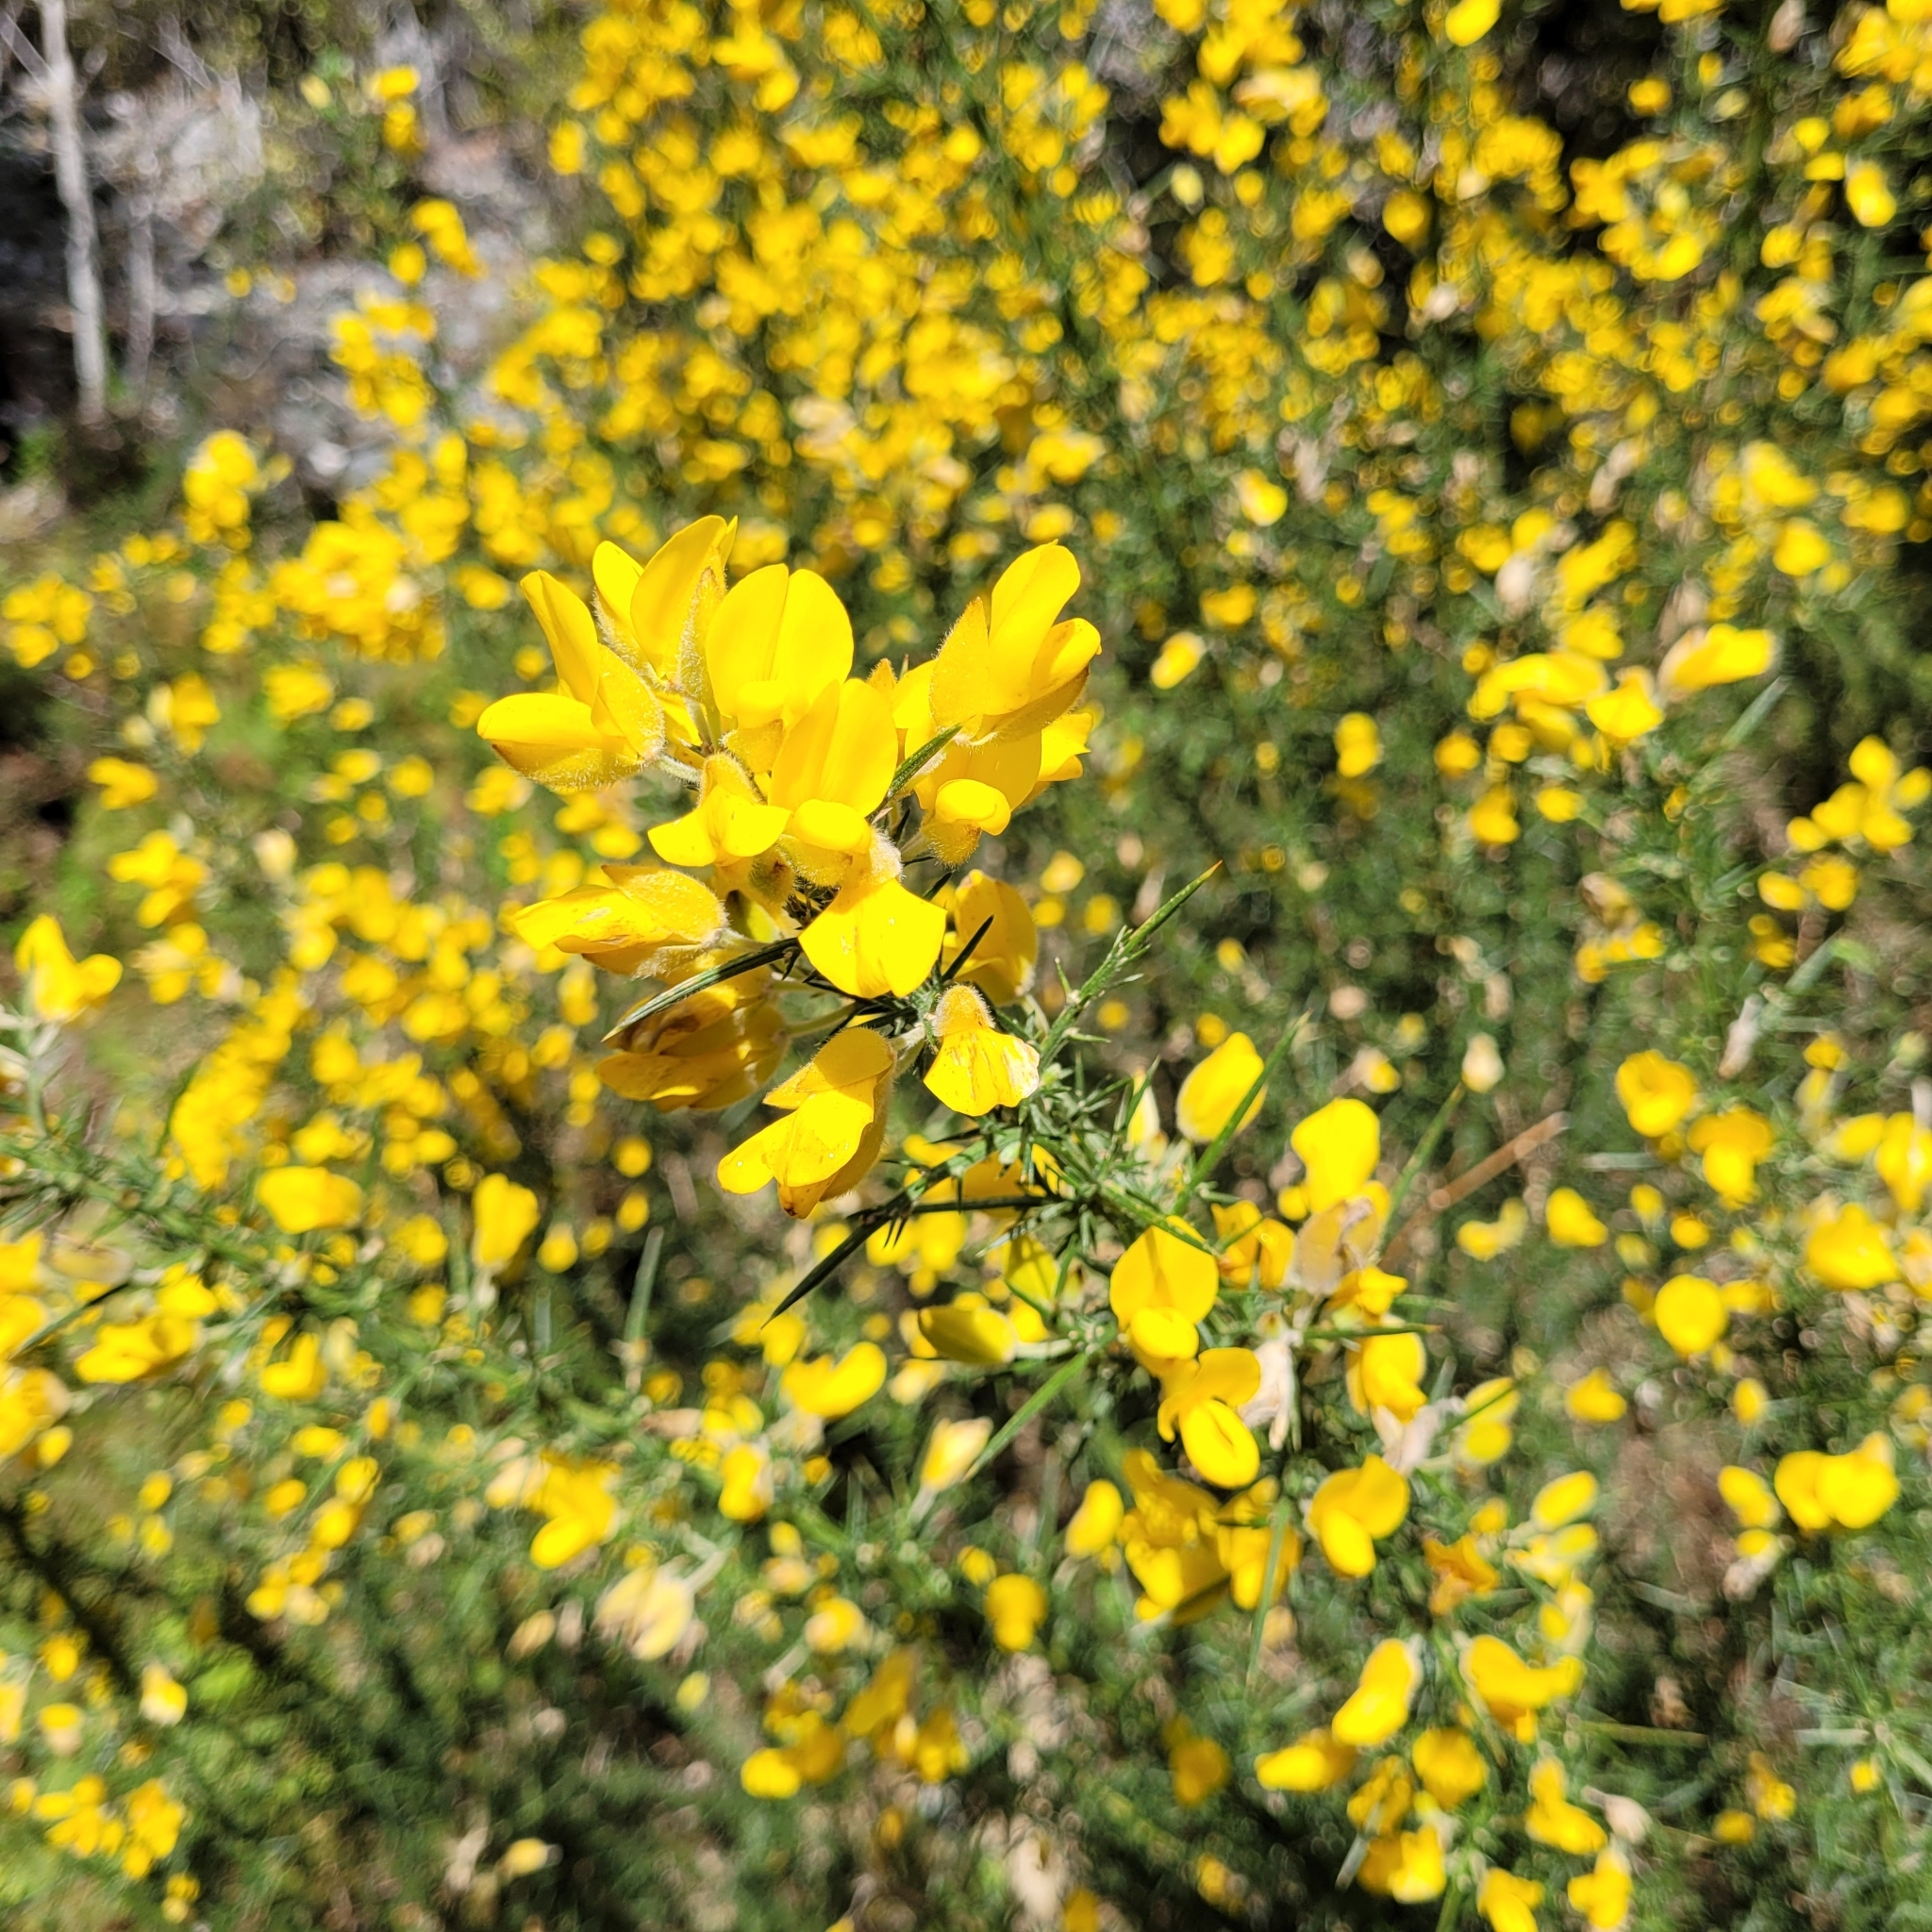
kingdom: Plantae
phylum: Tracheophyta
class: Magnoliopsida
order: Fabales
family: Fabaceae
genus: Ulex
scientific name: Ulex europaeus
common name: Common gorse
